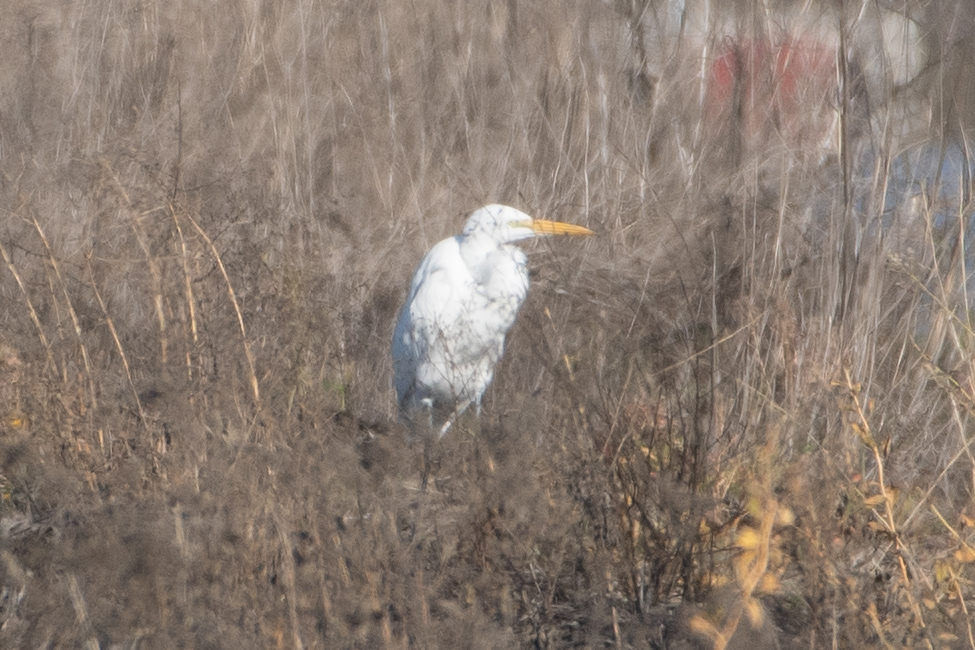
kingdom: Animalia
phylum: Chordata
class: Aves
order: Pelecaniformes
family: Ardeidae
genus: Ardea
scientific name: Ardea alba
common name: Great egret
